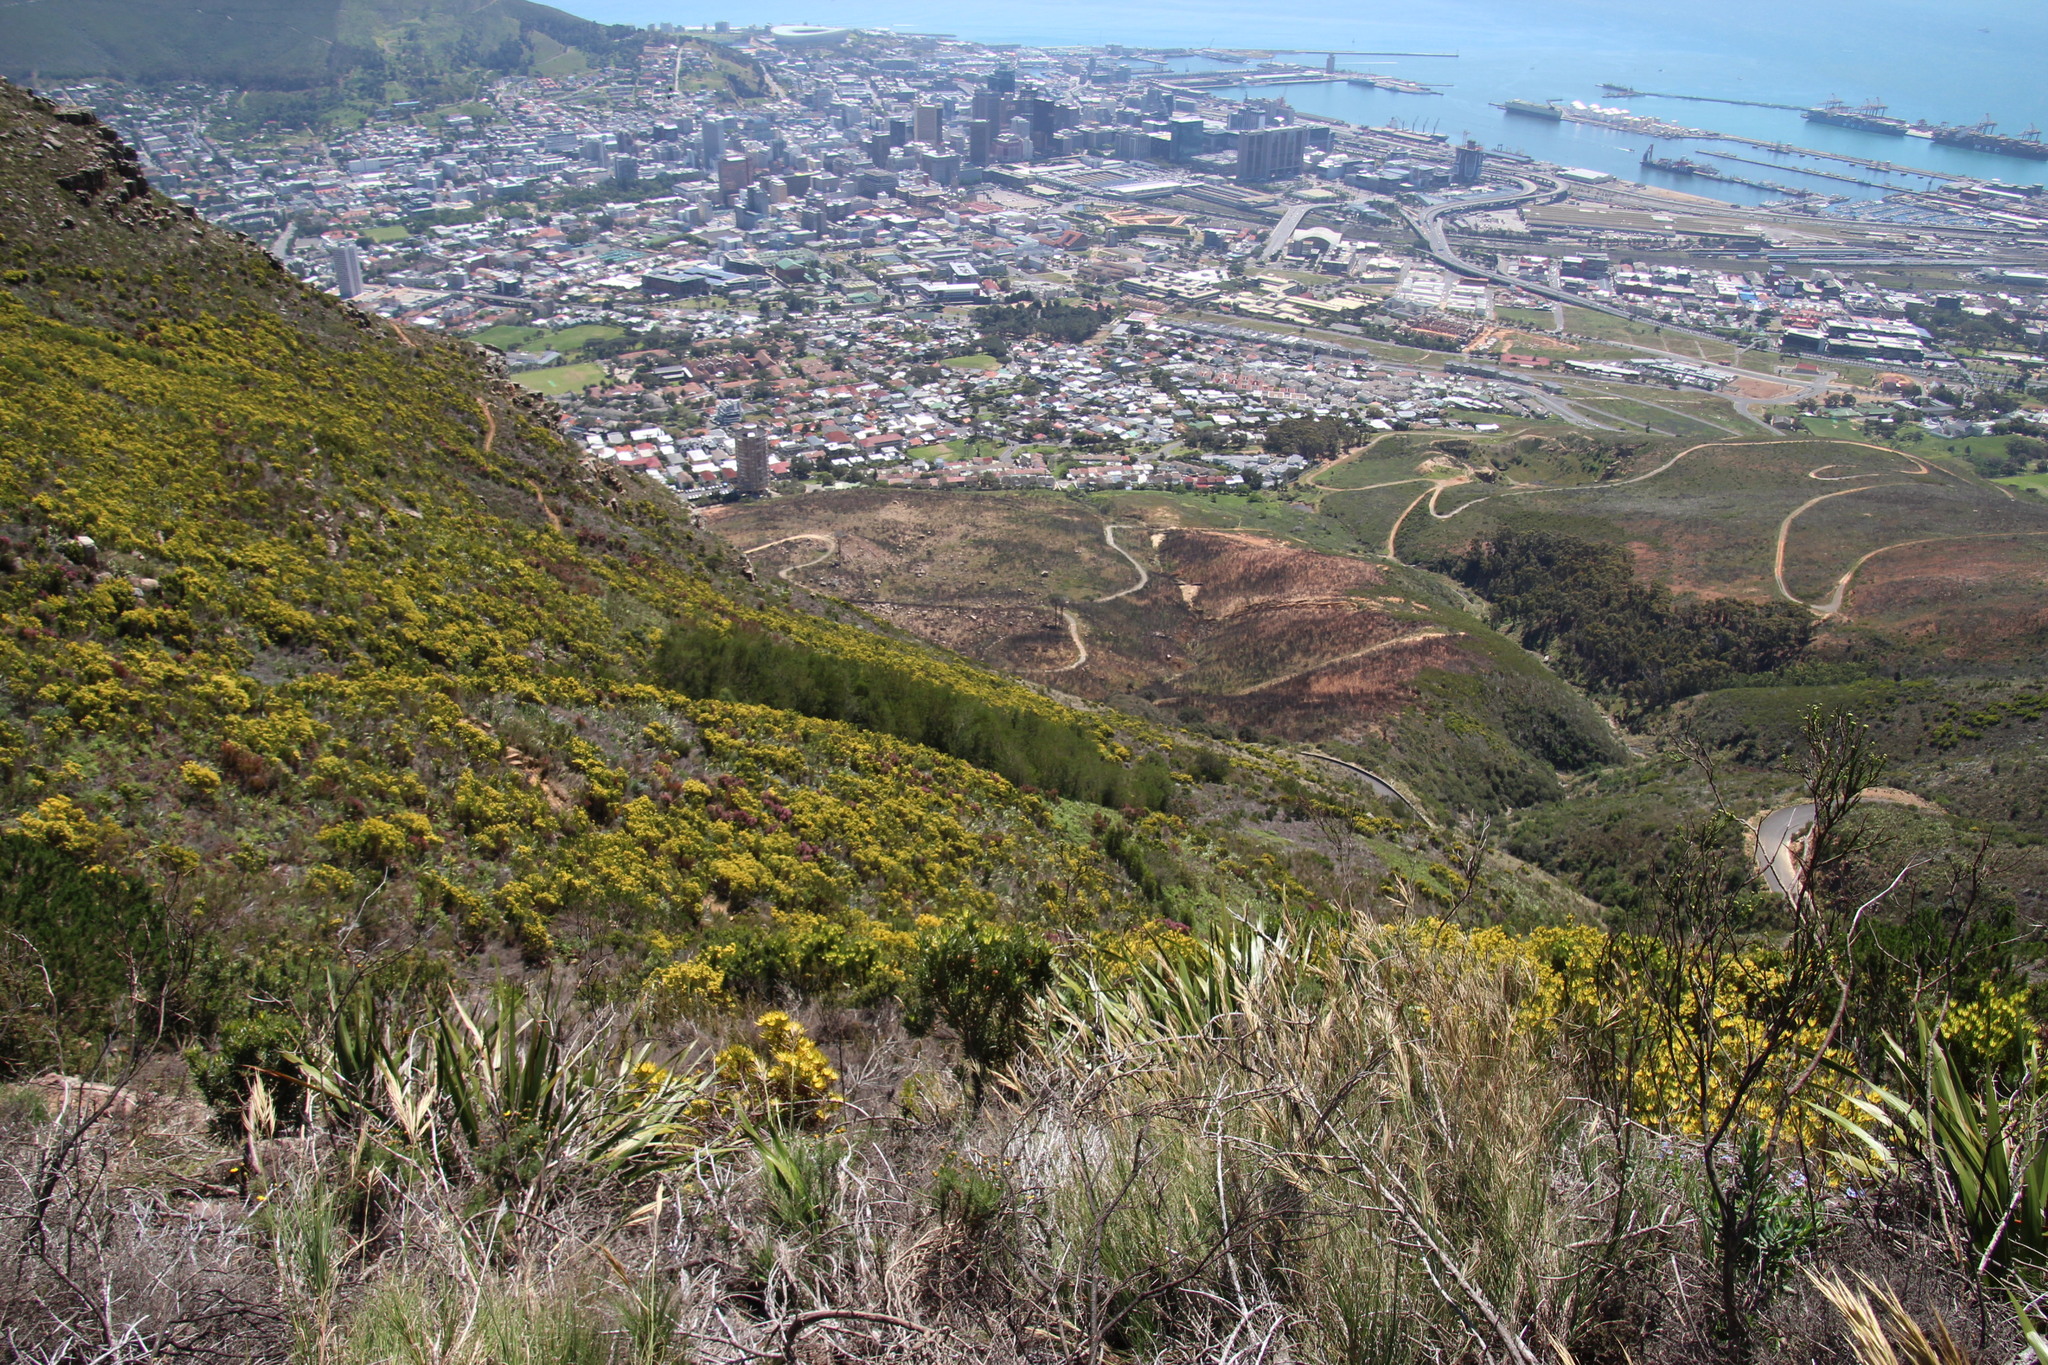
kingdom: Plantae
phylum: Tracheophyta
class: Magnoliopsida
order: Fabales
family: Fabaceae
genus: Acacia
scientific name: Acacia mearnsii
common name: Black wattle
